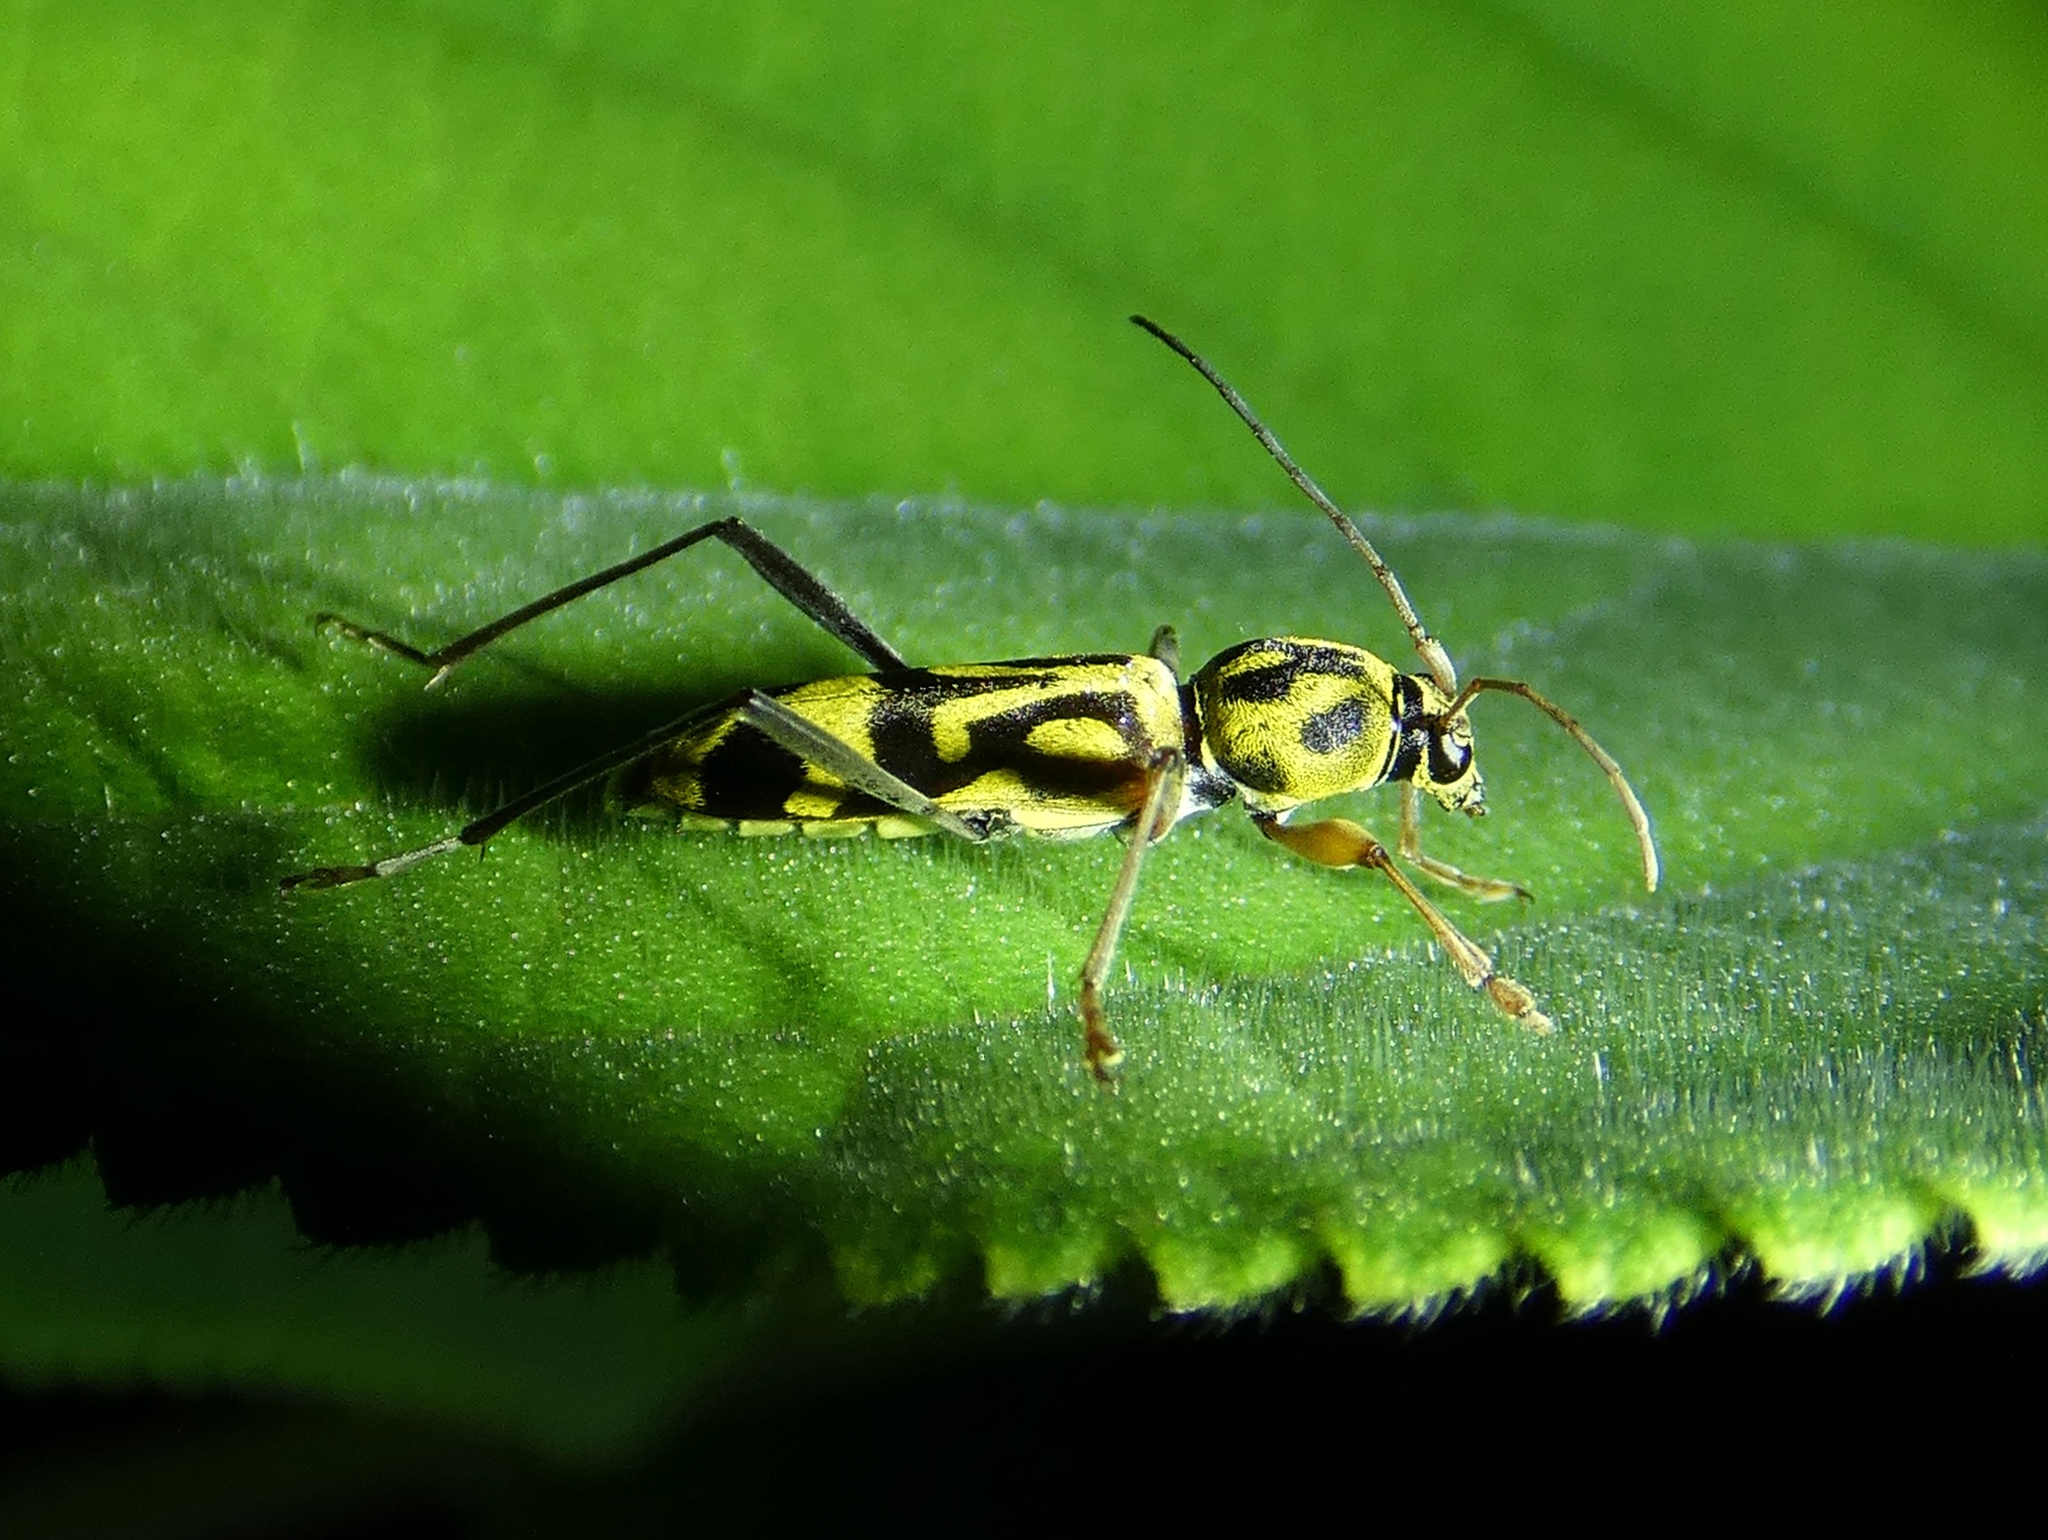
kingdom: Animalia
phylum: Arthropoda
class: Insecta
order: Coleoptera
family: Cerambycidae
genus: Chlorophorus
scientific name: Chlorophorus annularis
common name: Bamboo longhorn beetle
